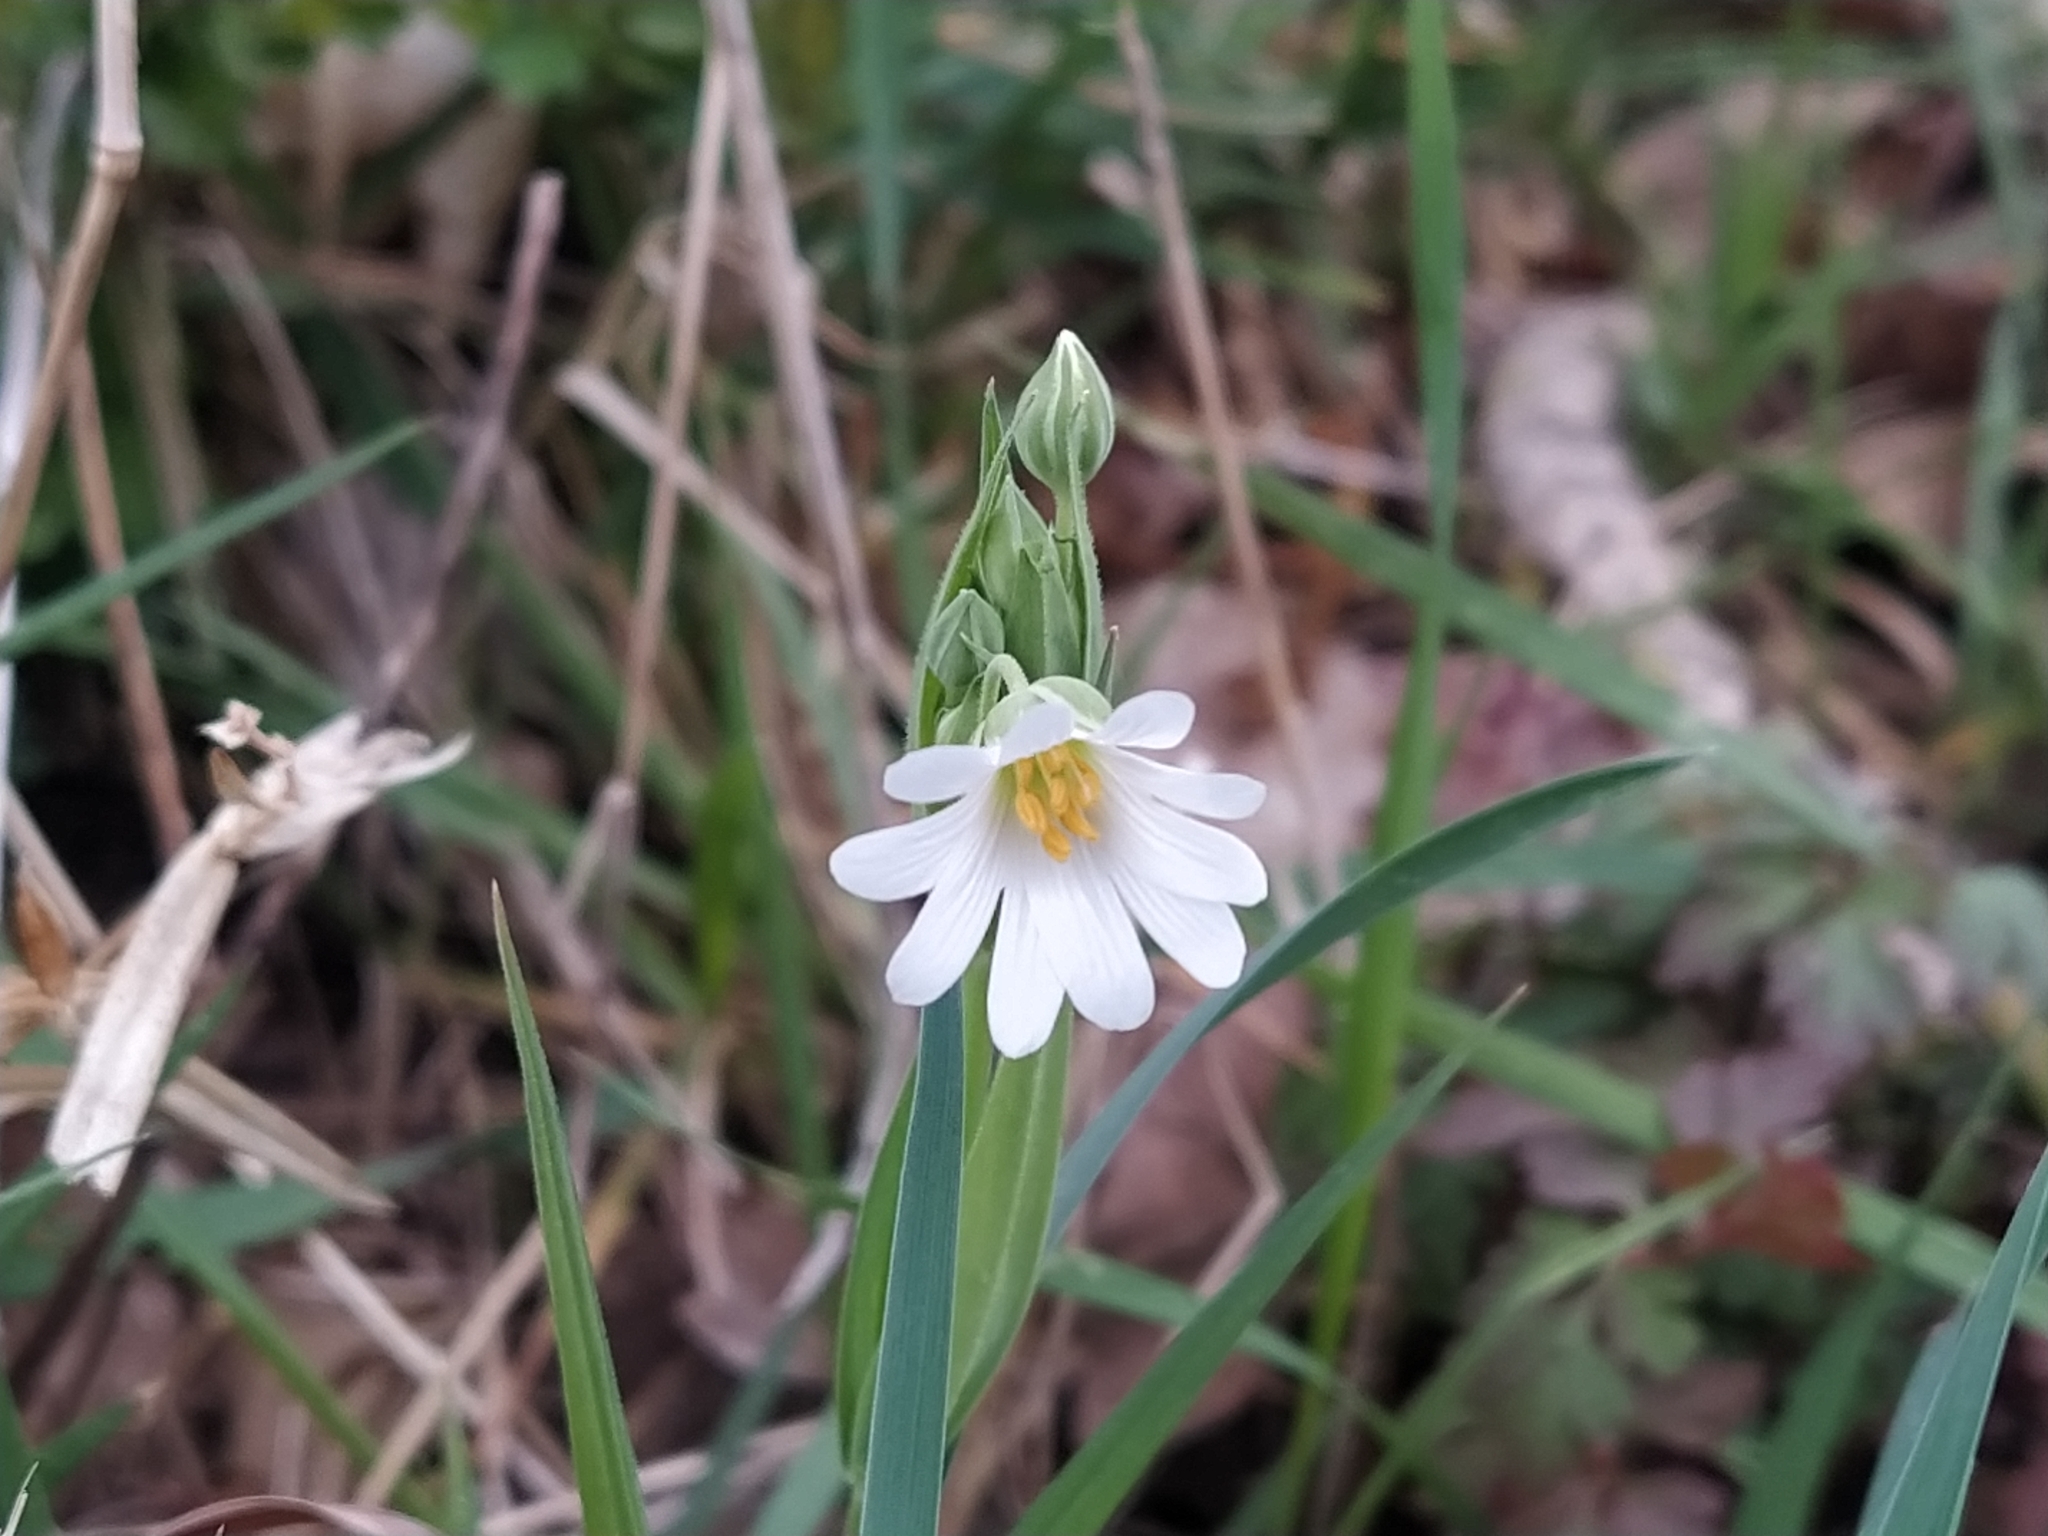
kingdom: Plantae
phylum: Tracheophyta
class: Magnoliopsida
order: Caryophyllales
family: Caryophyllaceae
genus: Rabelera
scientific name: Rabelera holostea
